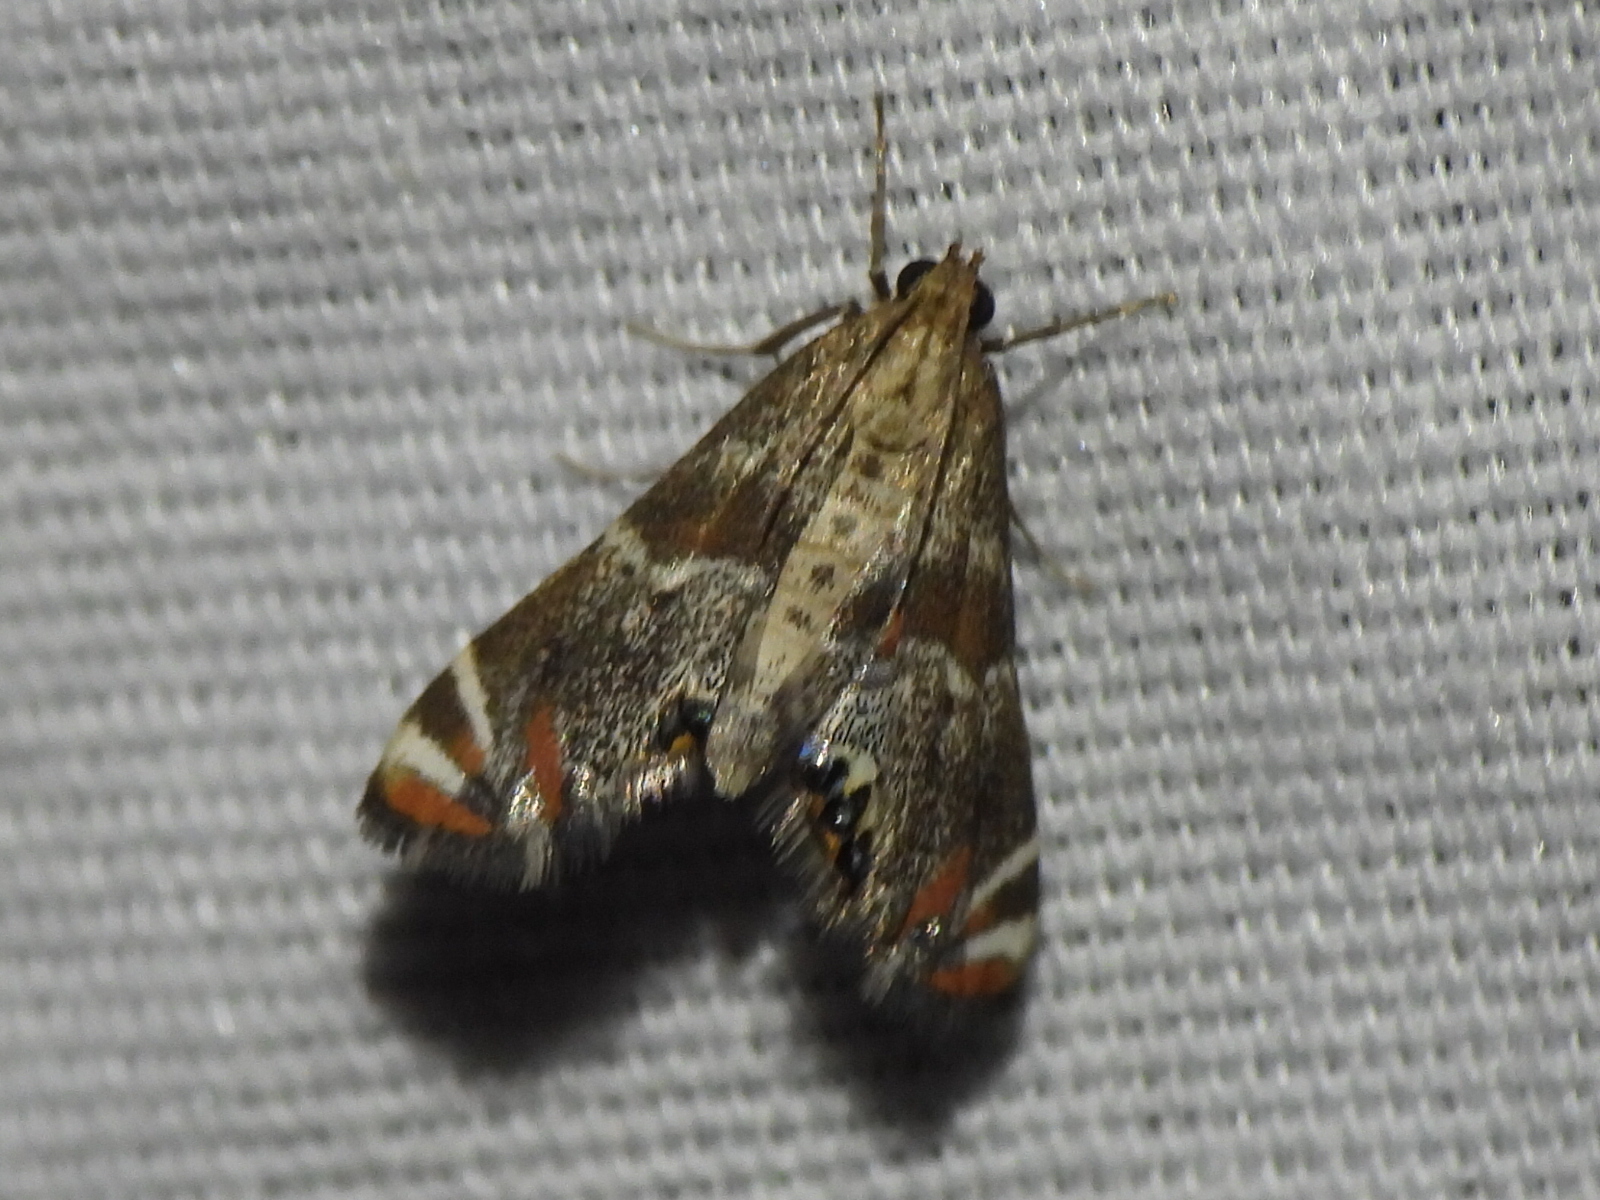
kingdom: Animalia
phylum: Arthropoda
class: Insecta
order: Lepidoptera
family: Crambidae
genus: Petrophila
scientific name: Petrophila jaliscalis
